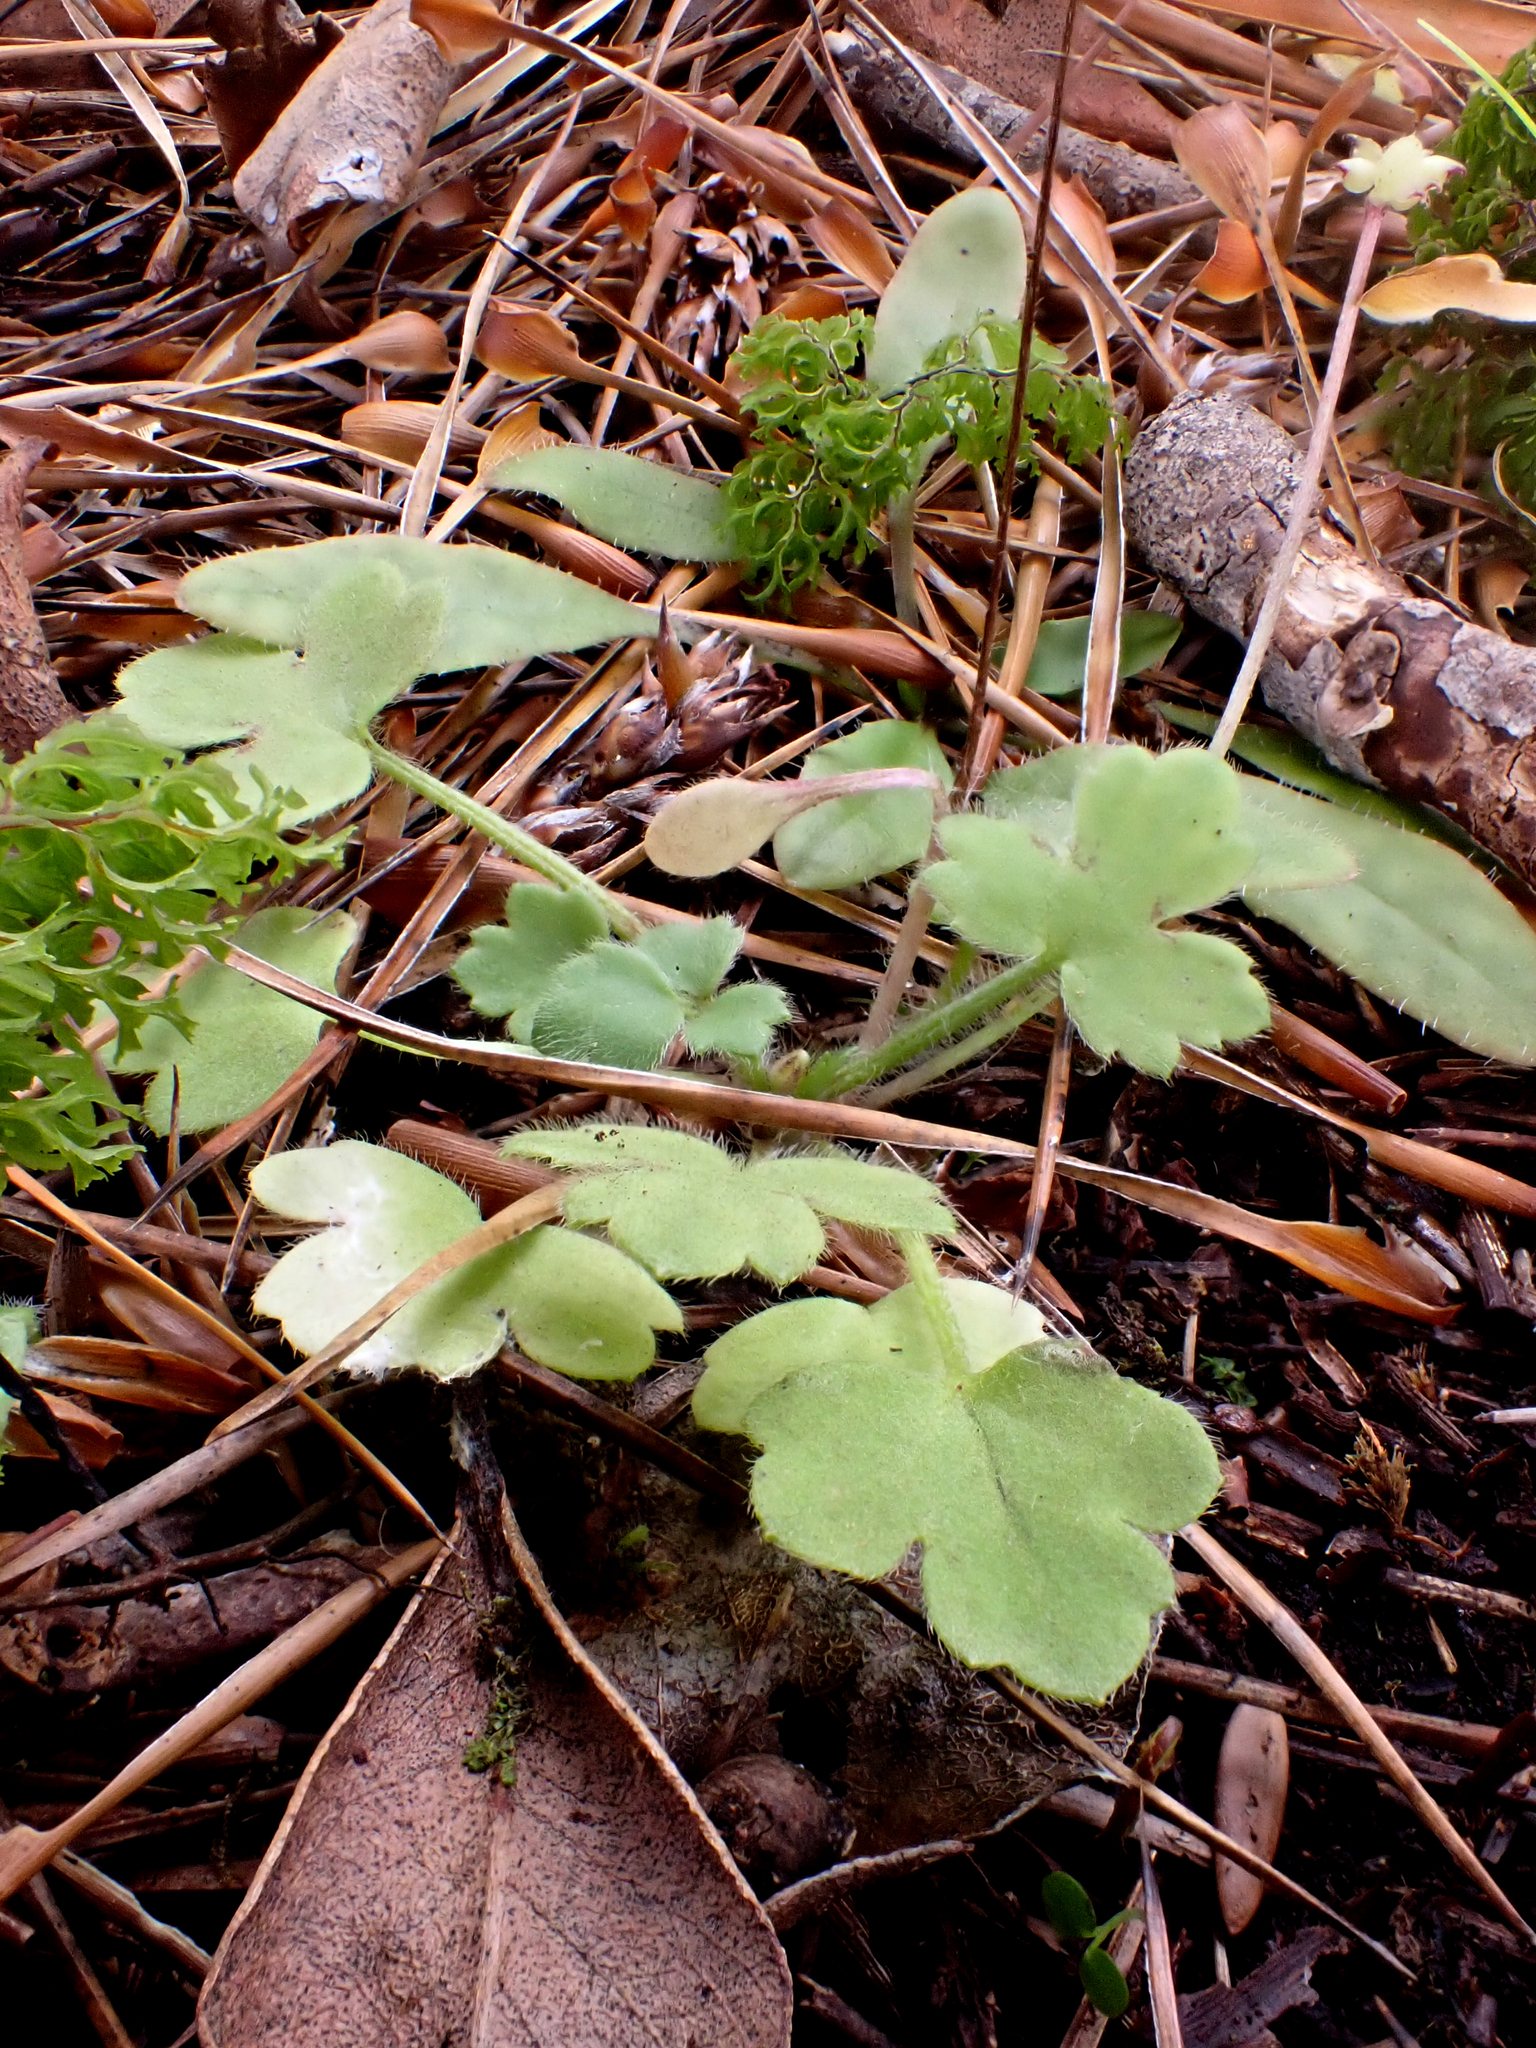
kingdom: Plantae
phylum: Tracheophyta
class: Magnoliopsida
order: Ranunculales
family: Ranunculaceae
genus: Ranunculus
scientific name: Ranunculus reflexus
